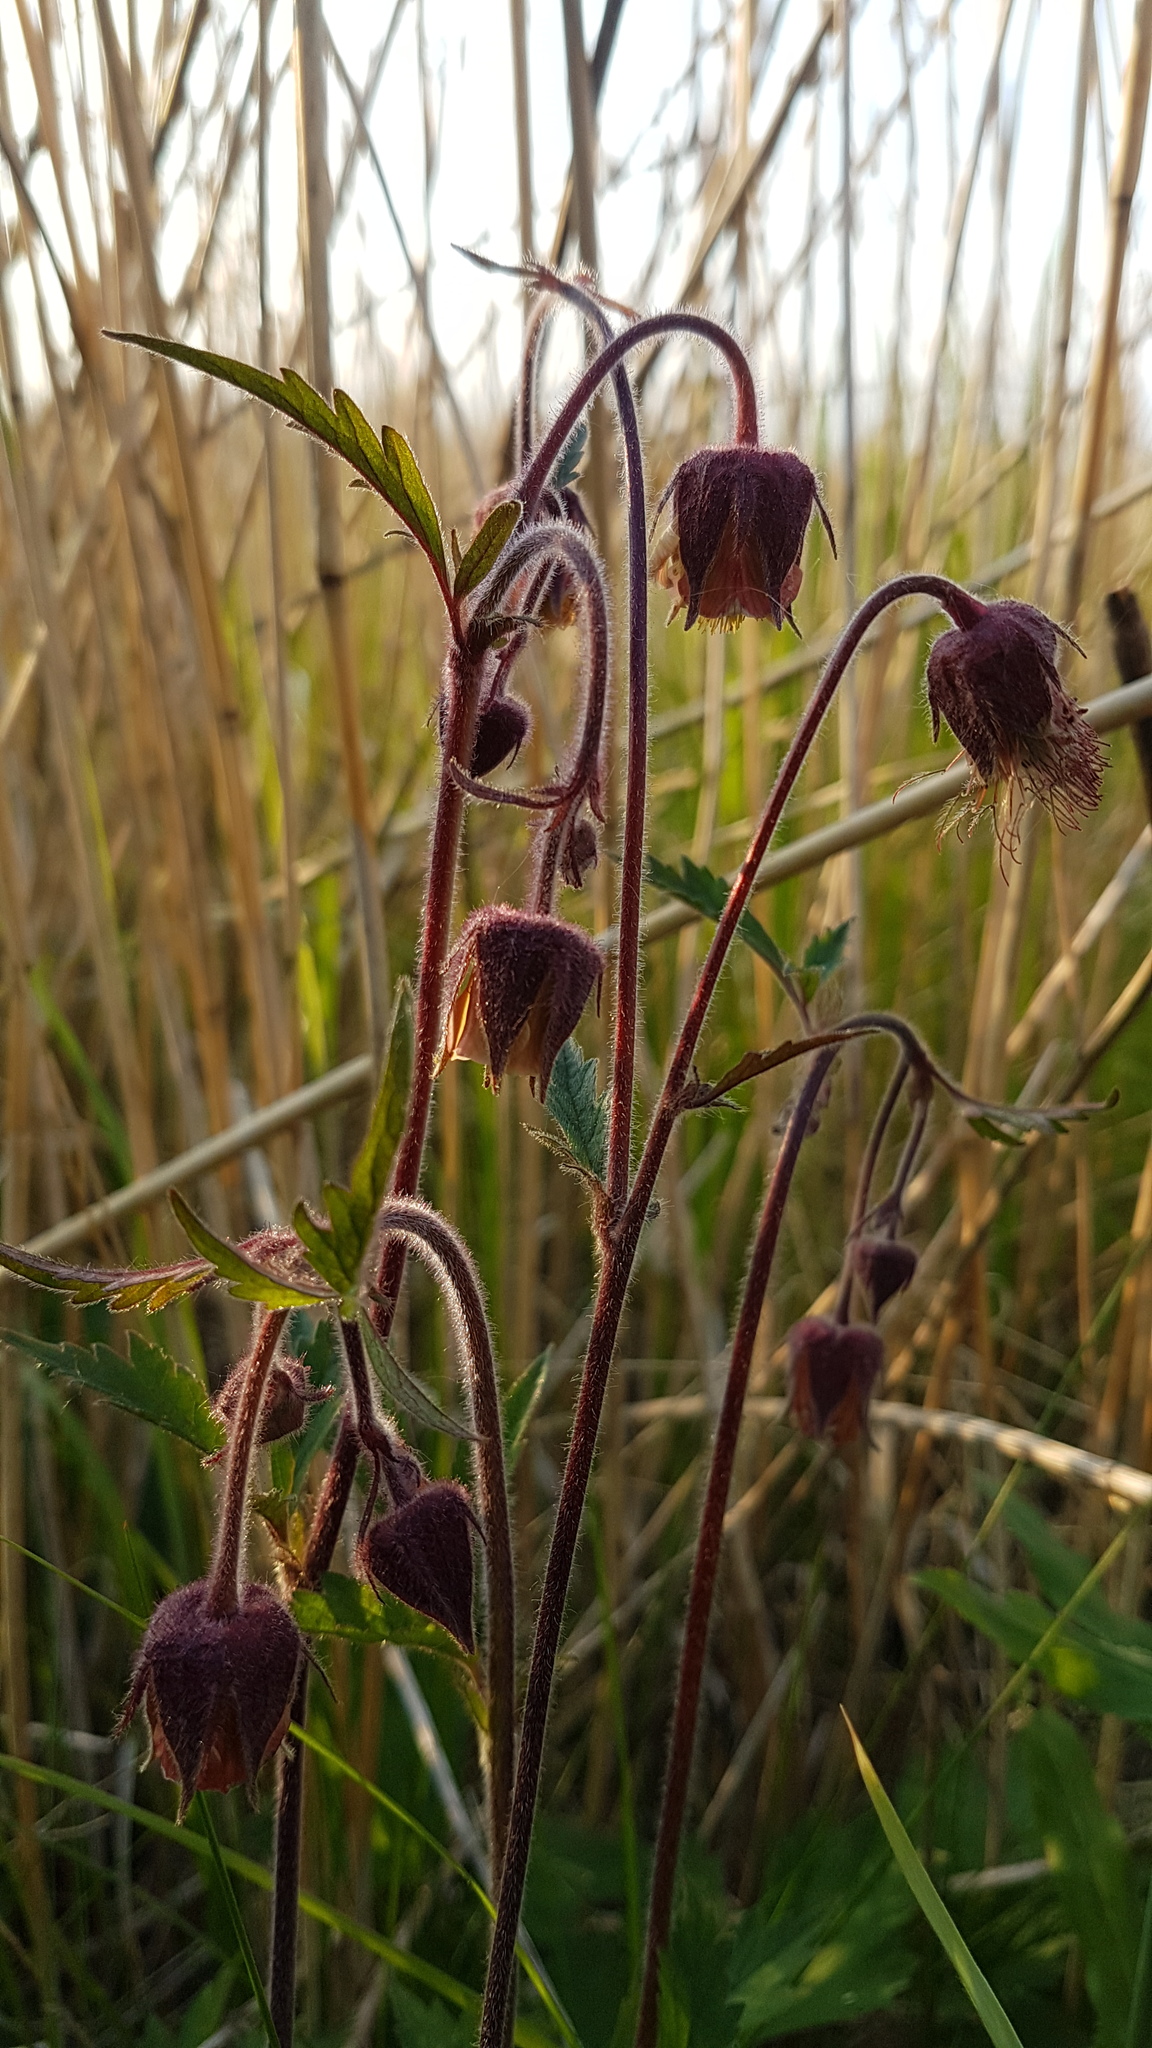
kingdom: Plantae
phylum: Tracheophyta
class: Magnoliopsida
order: Rosales
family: Rosaceae
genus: Geum
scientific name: Geum rivale
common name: Water avens
